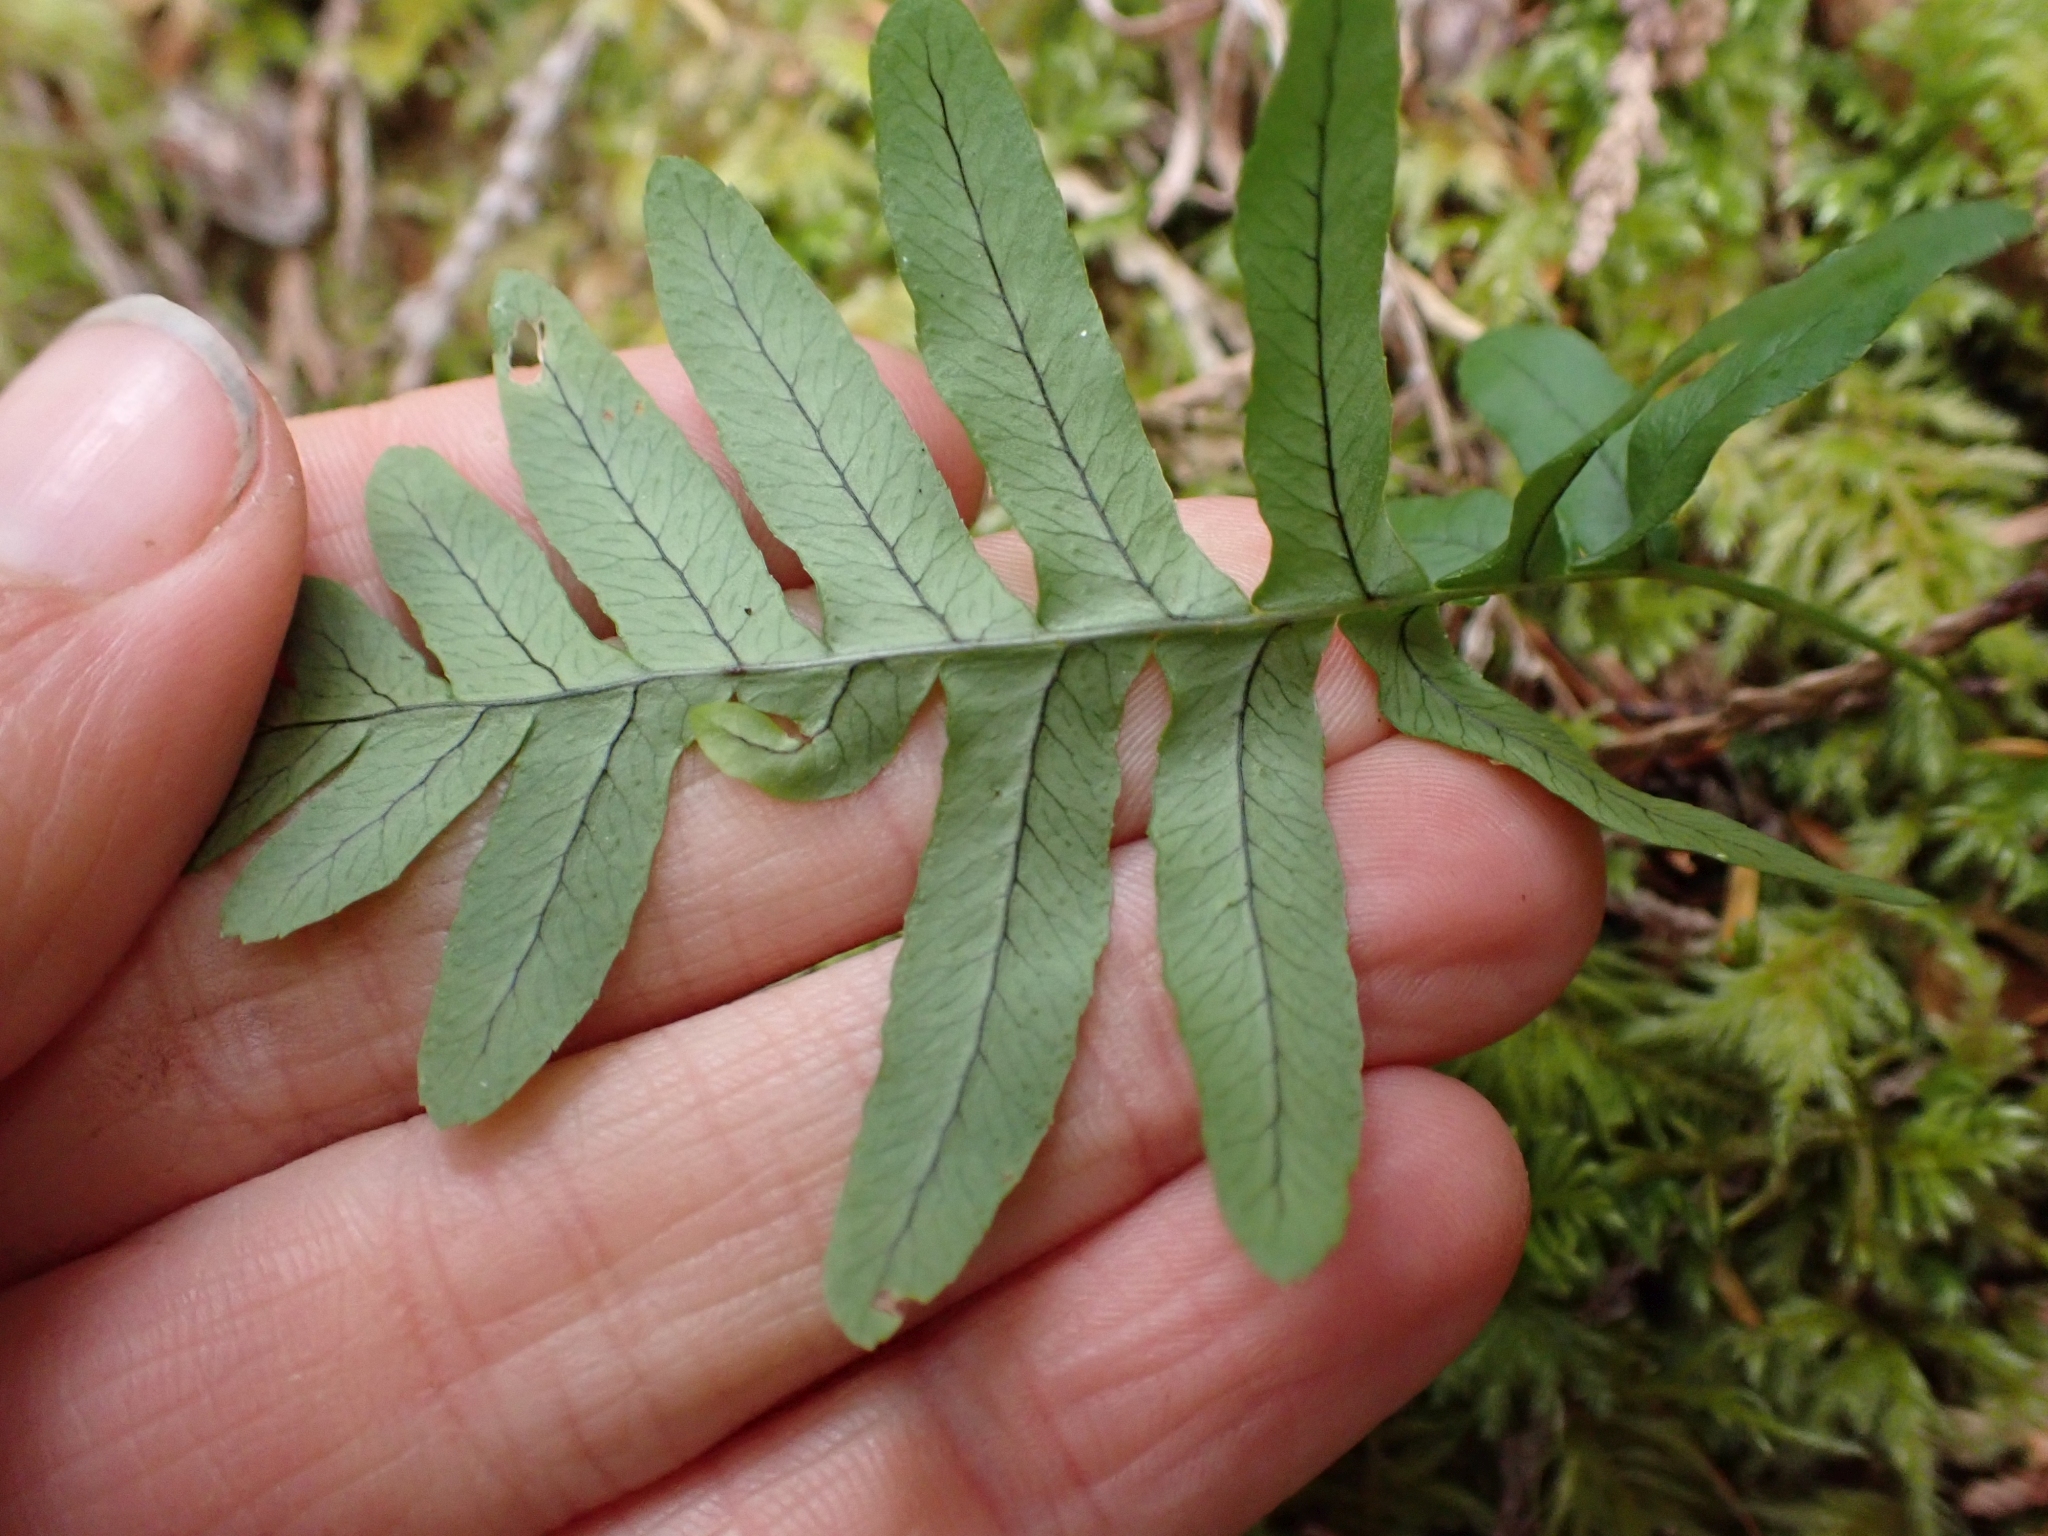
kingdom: Plantae
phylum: Tracheophyta
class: Polypodiopsida
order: Polypodiales
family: Polypodiaceae
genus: Polypodium
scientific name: Polypodium glycyrrhiza
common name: Licorice fern
